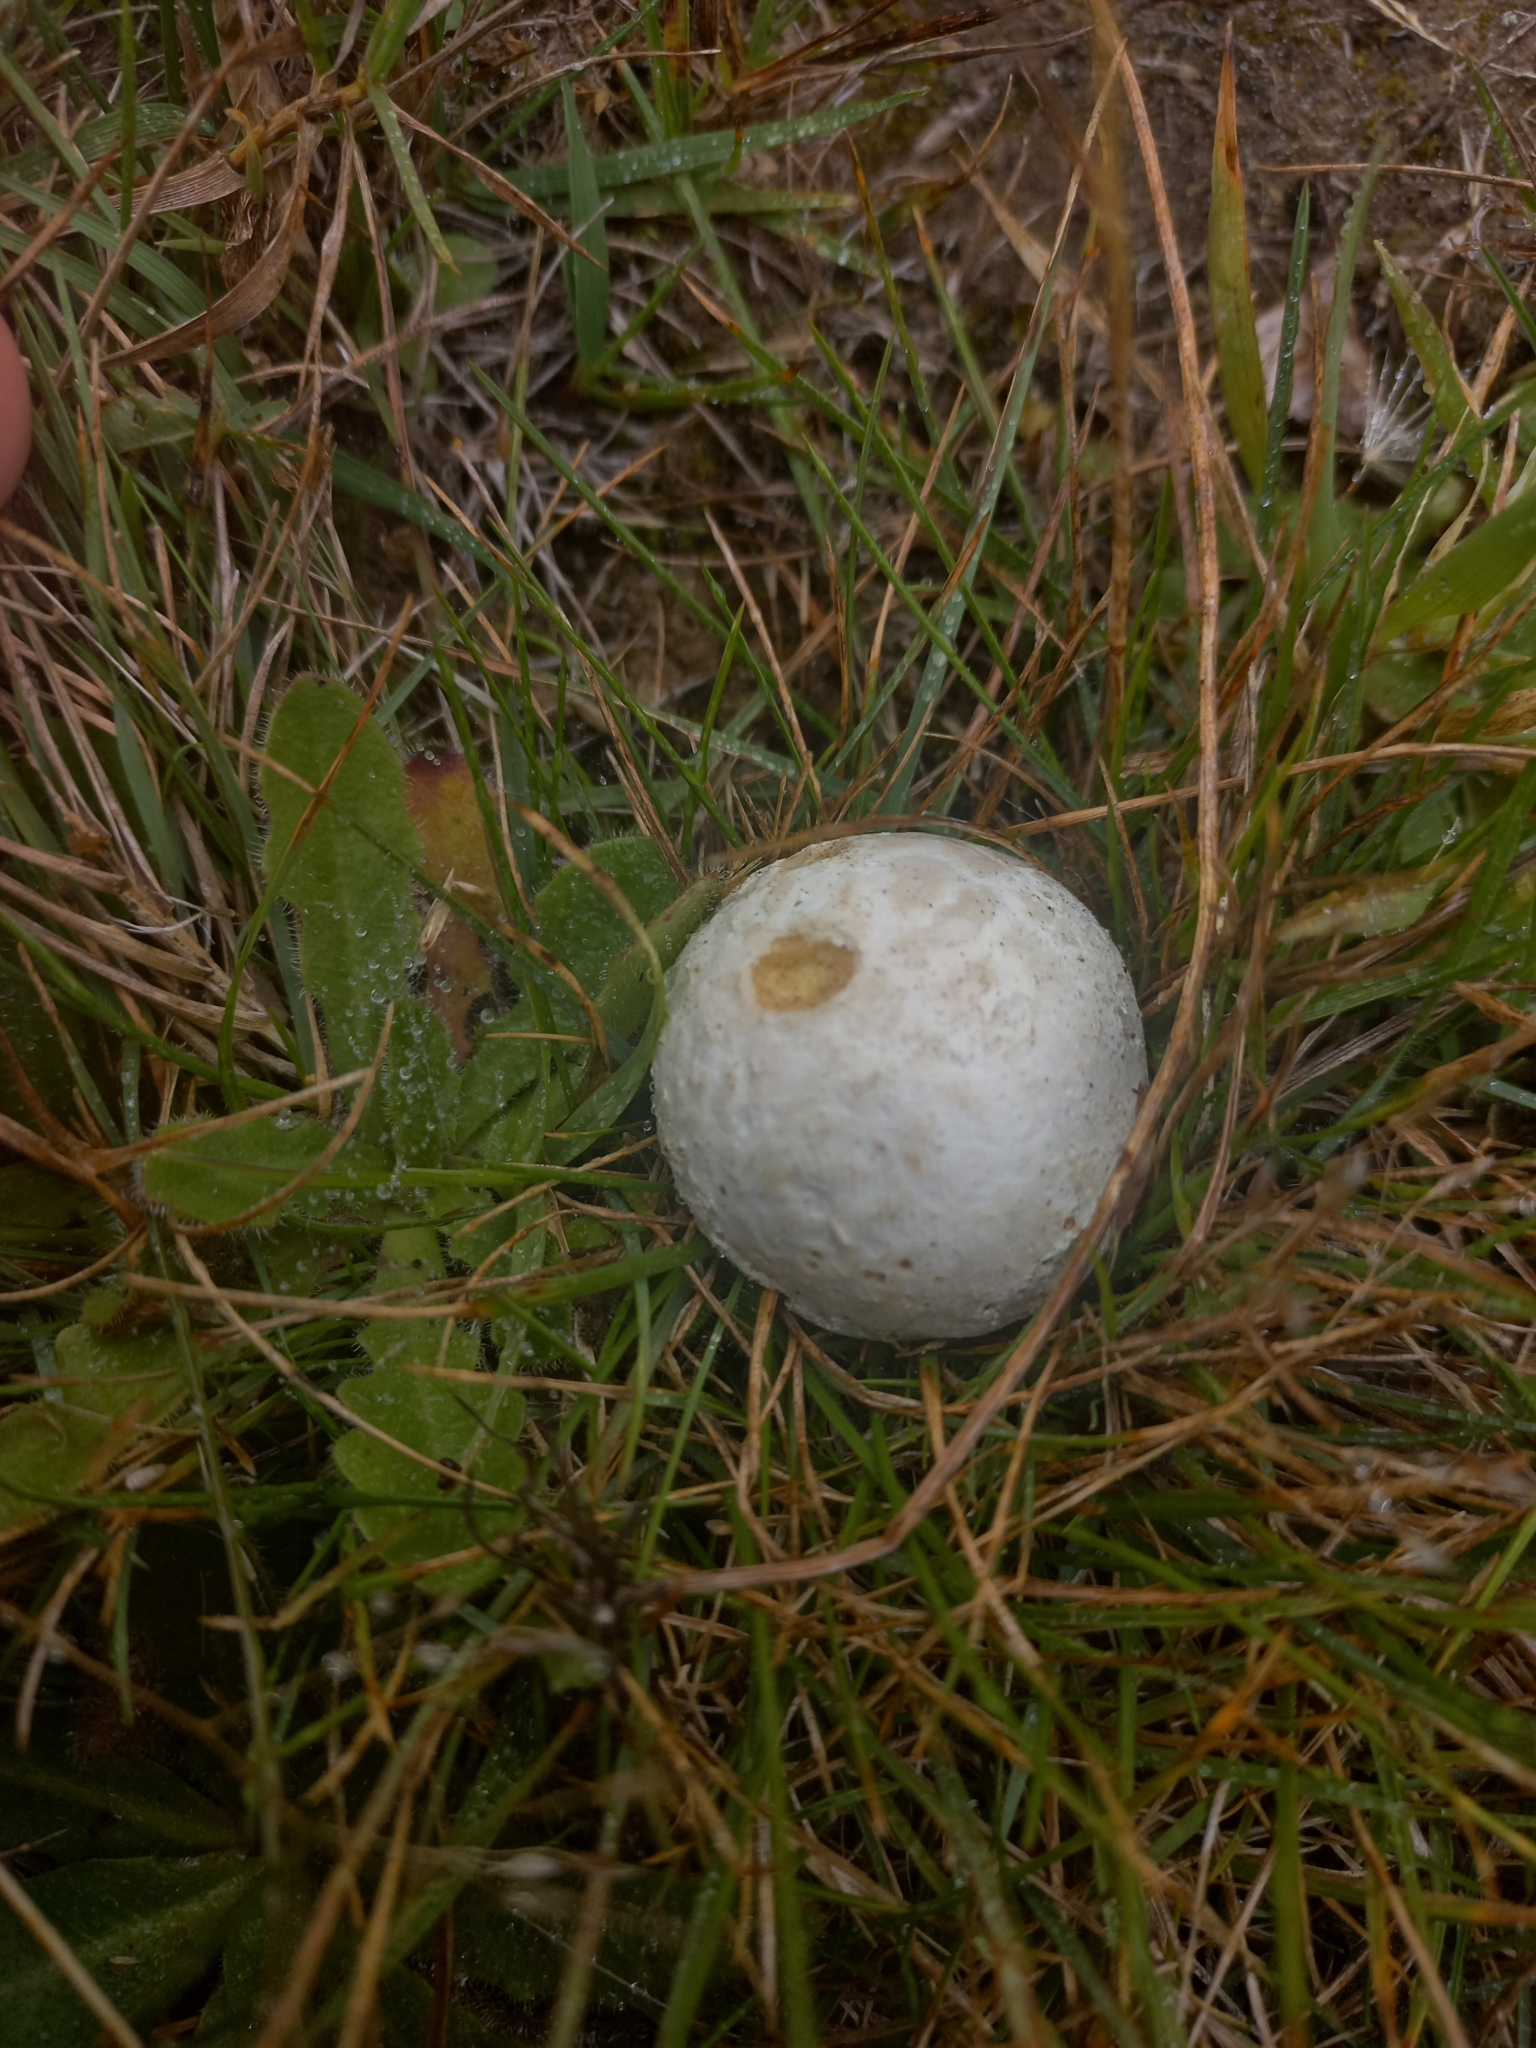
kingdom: Fungi
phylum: Basidiomycota
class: Agaricomycetes
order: Agaricales
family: Lycoperdaceae
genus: Bovista
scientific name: Bovista plumbea
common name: Grey puffball
